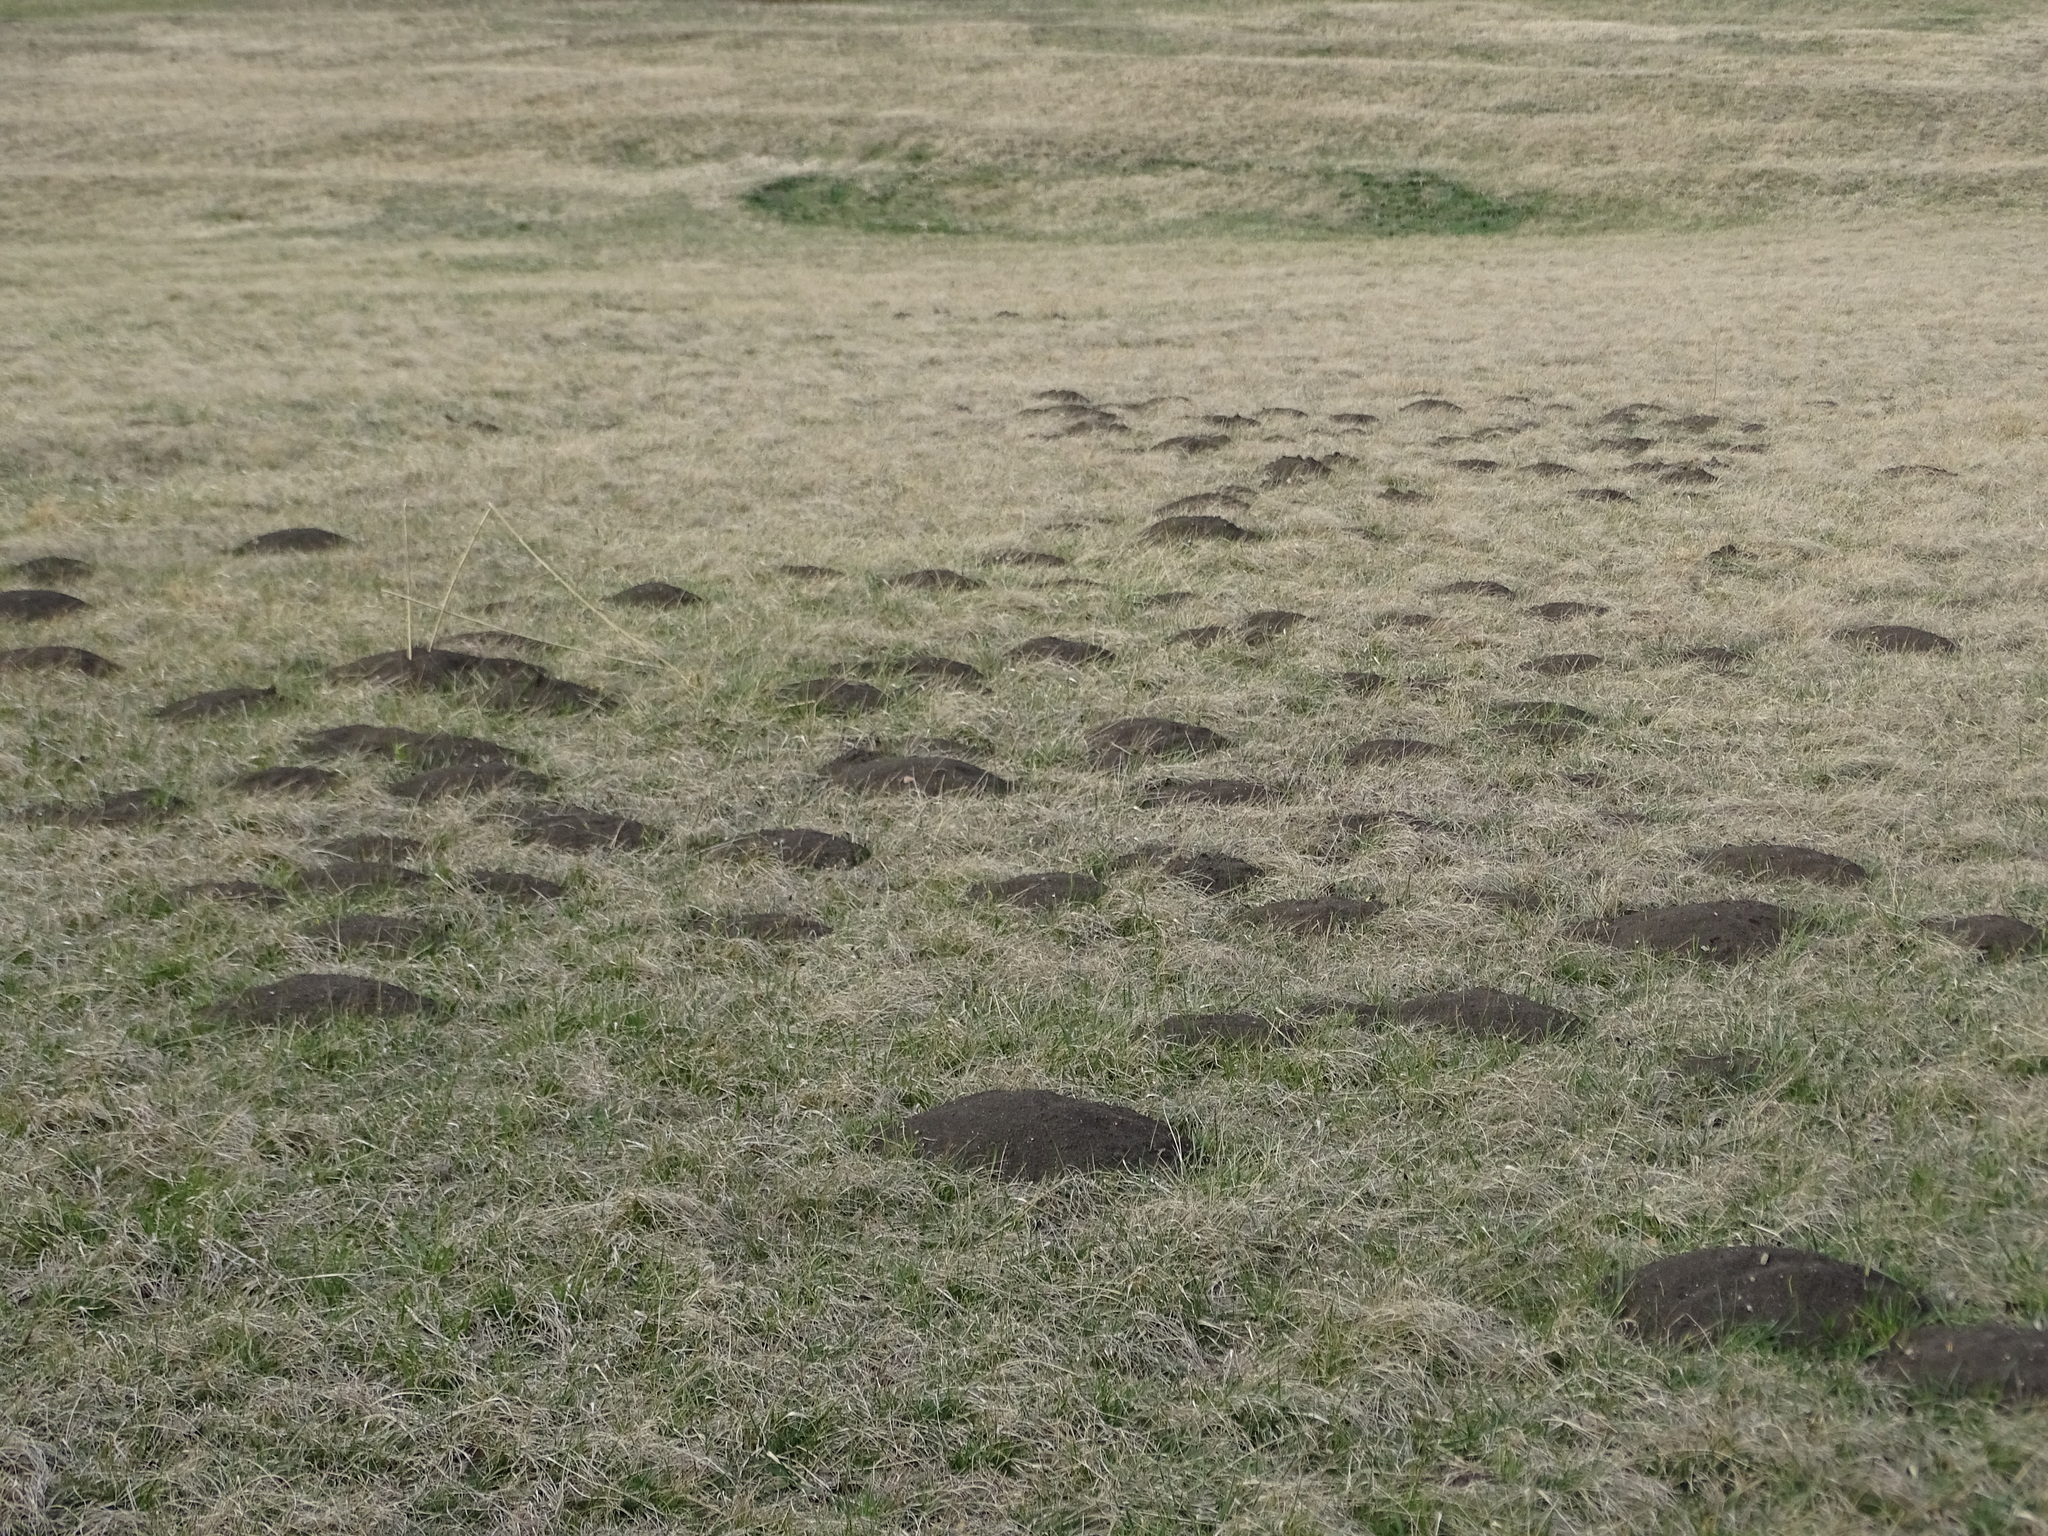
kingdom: Animalia
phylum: Chordata
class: Mammalia
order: Soricomorpha
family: Talpidae
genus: Talpa
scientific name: Talpa europaea
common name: European mole
